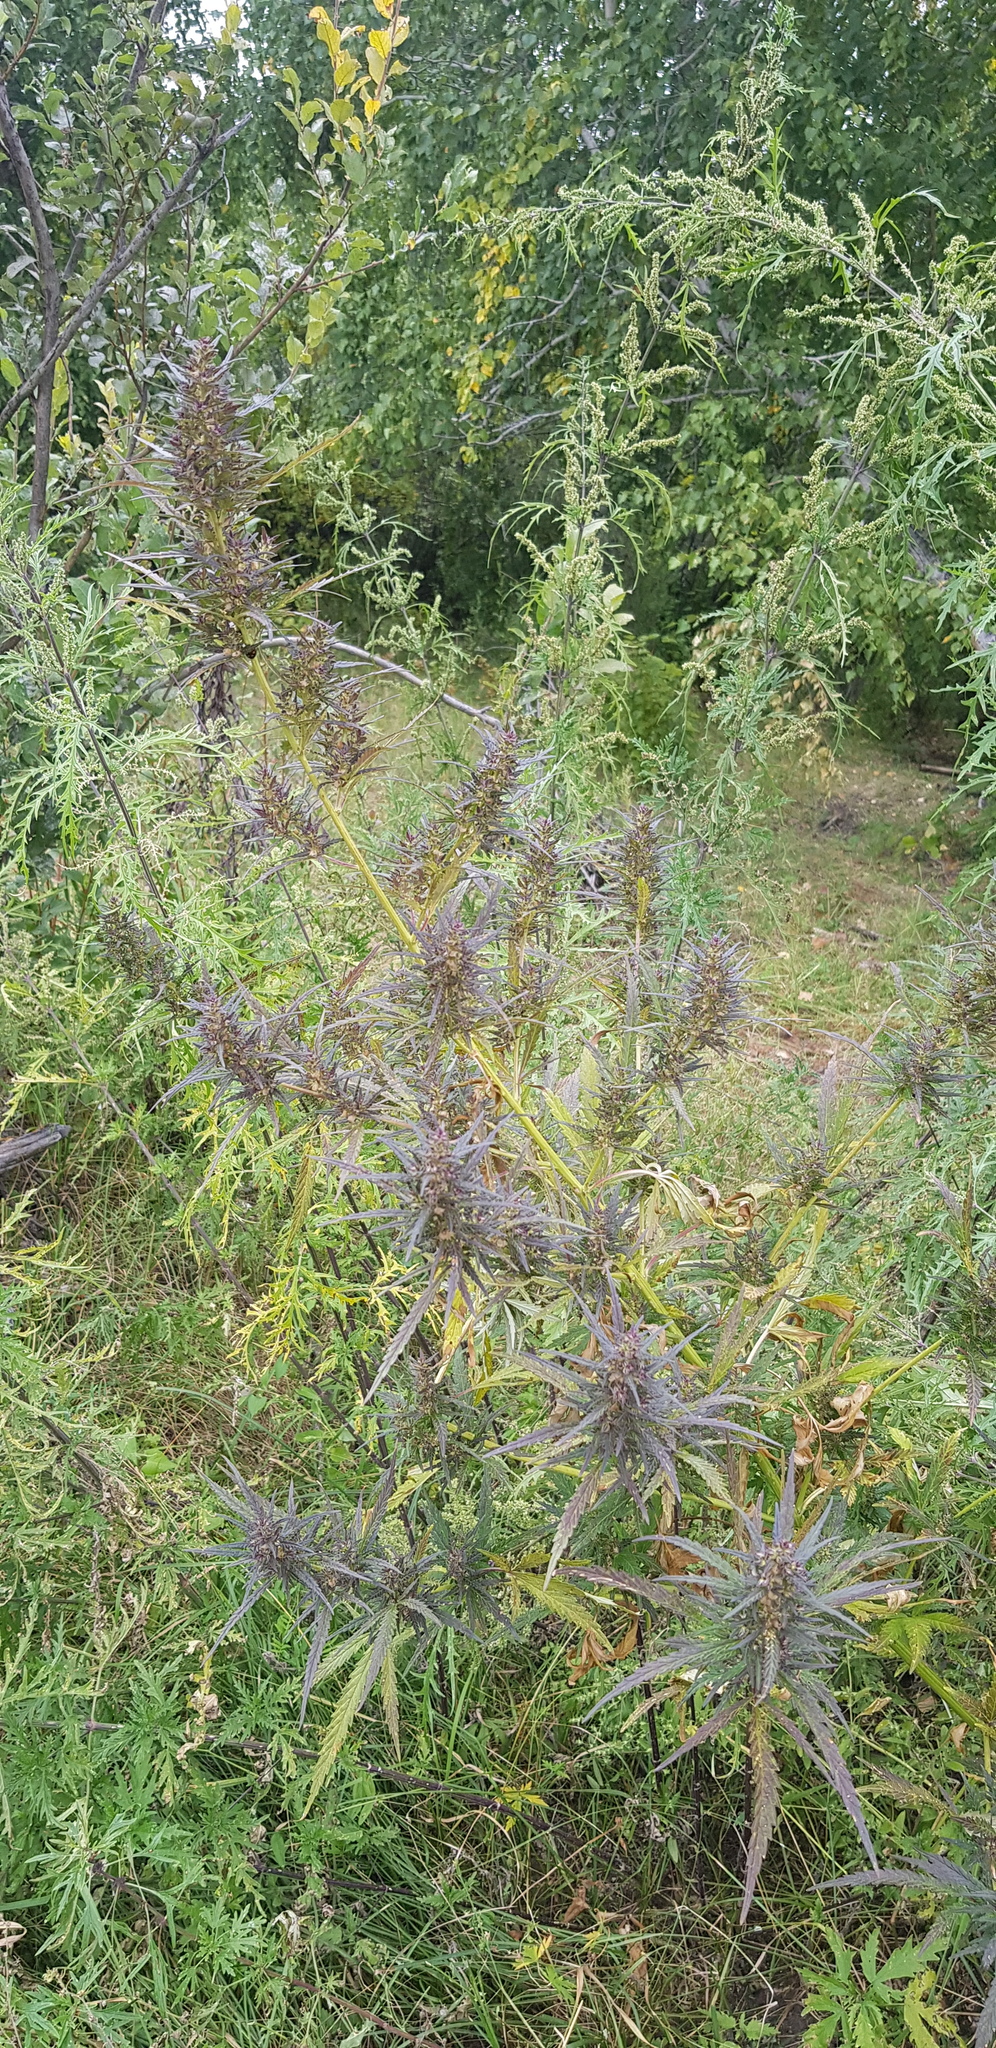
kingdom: Plantae
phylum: Tracheophyta
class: Magnoliopsida
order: Rosales
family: Cannabaceae
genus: Cannabis
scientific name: Cannabis sativa
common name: Hemp
